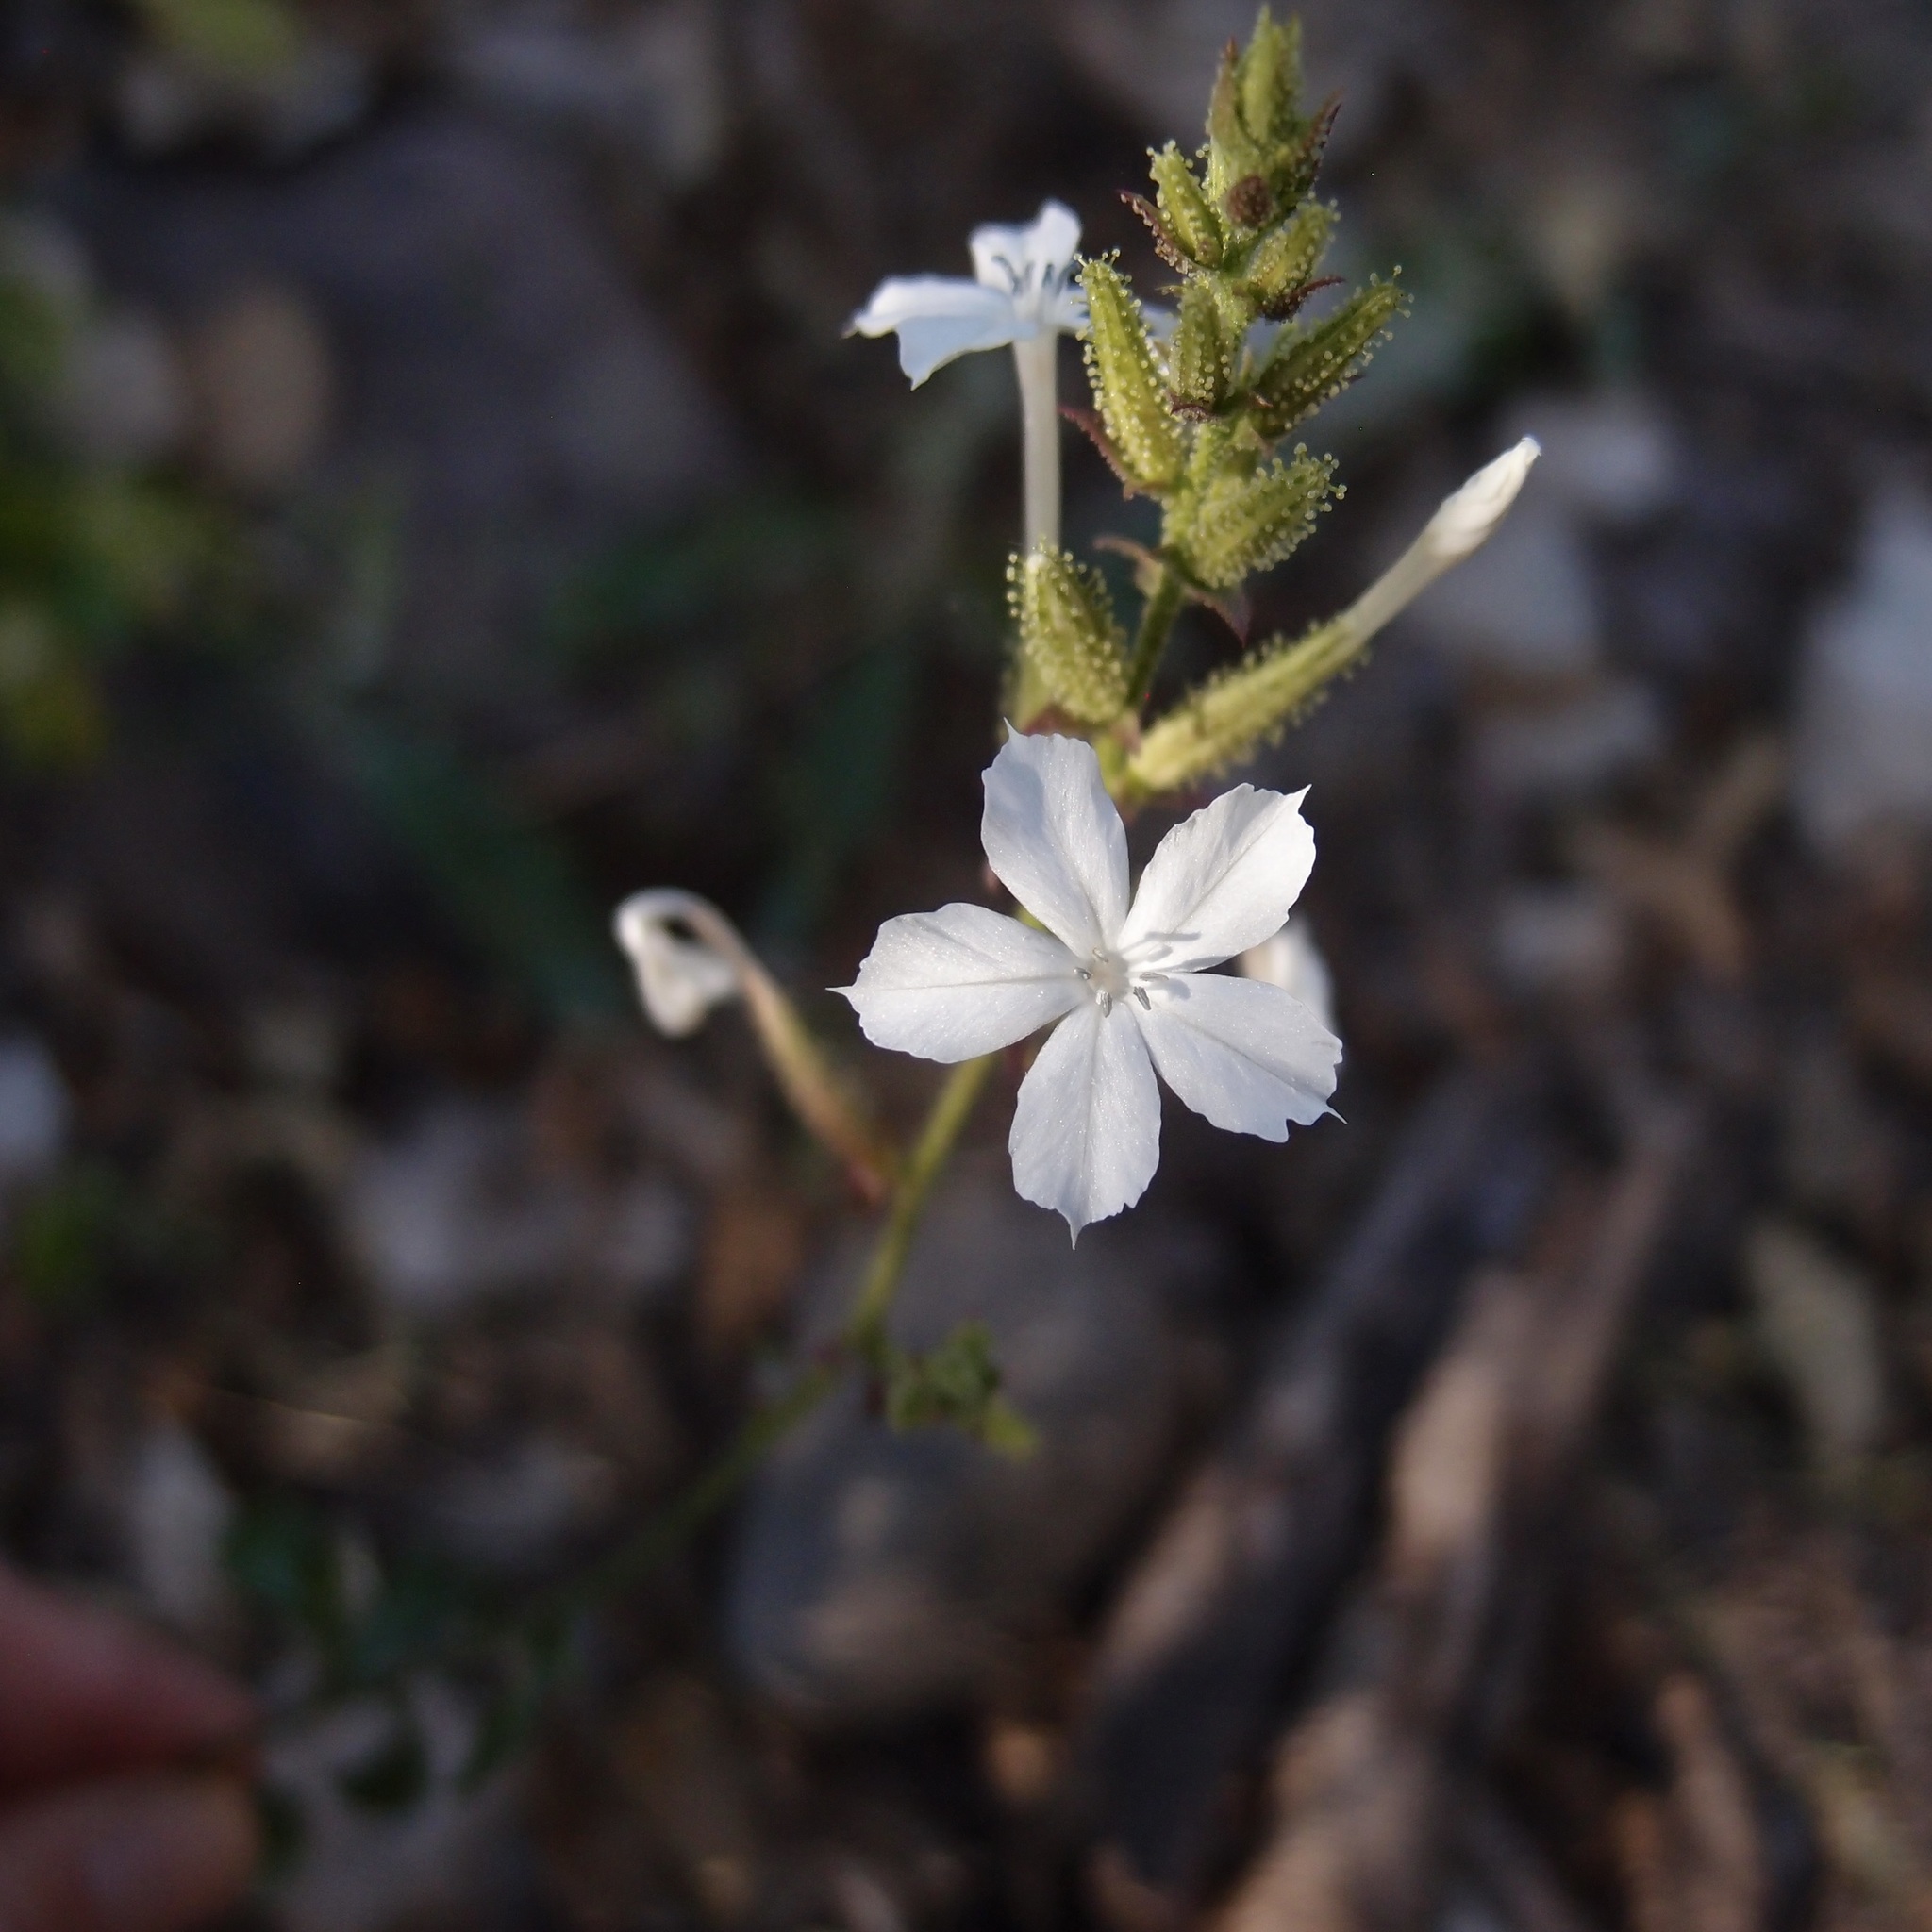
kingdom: Plantae
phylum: Tracheophyta
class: Magnoliopsida
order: Caryophyllales
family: Plumbaginaceae
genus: Plumbago
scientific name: Plumbago zeylanica
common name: Doctorbush
